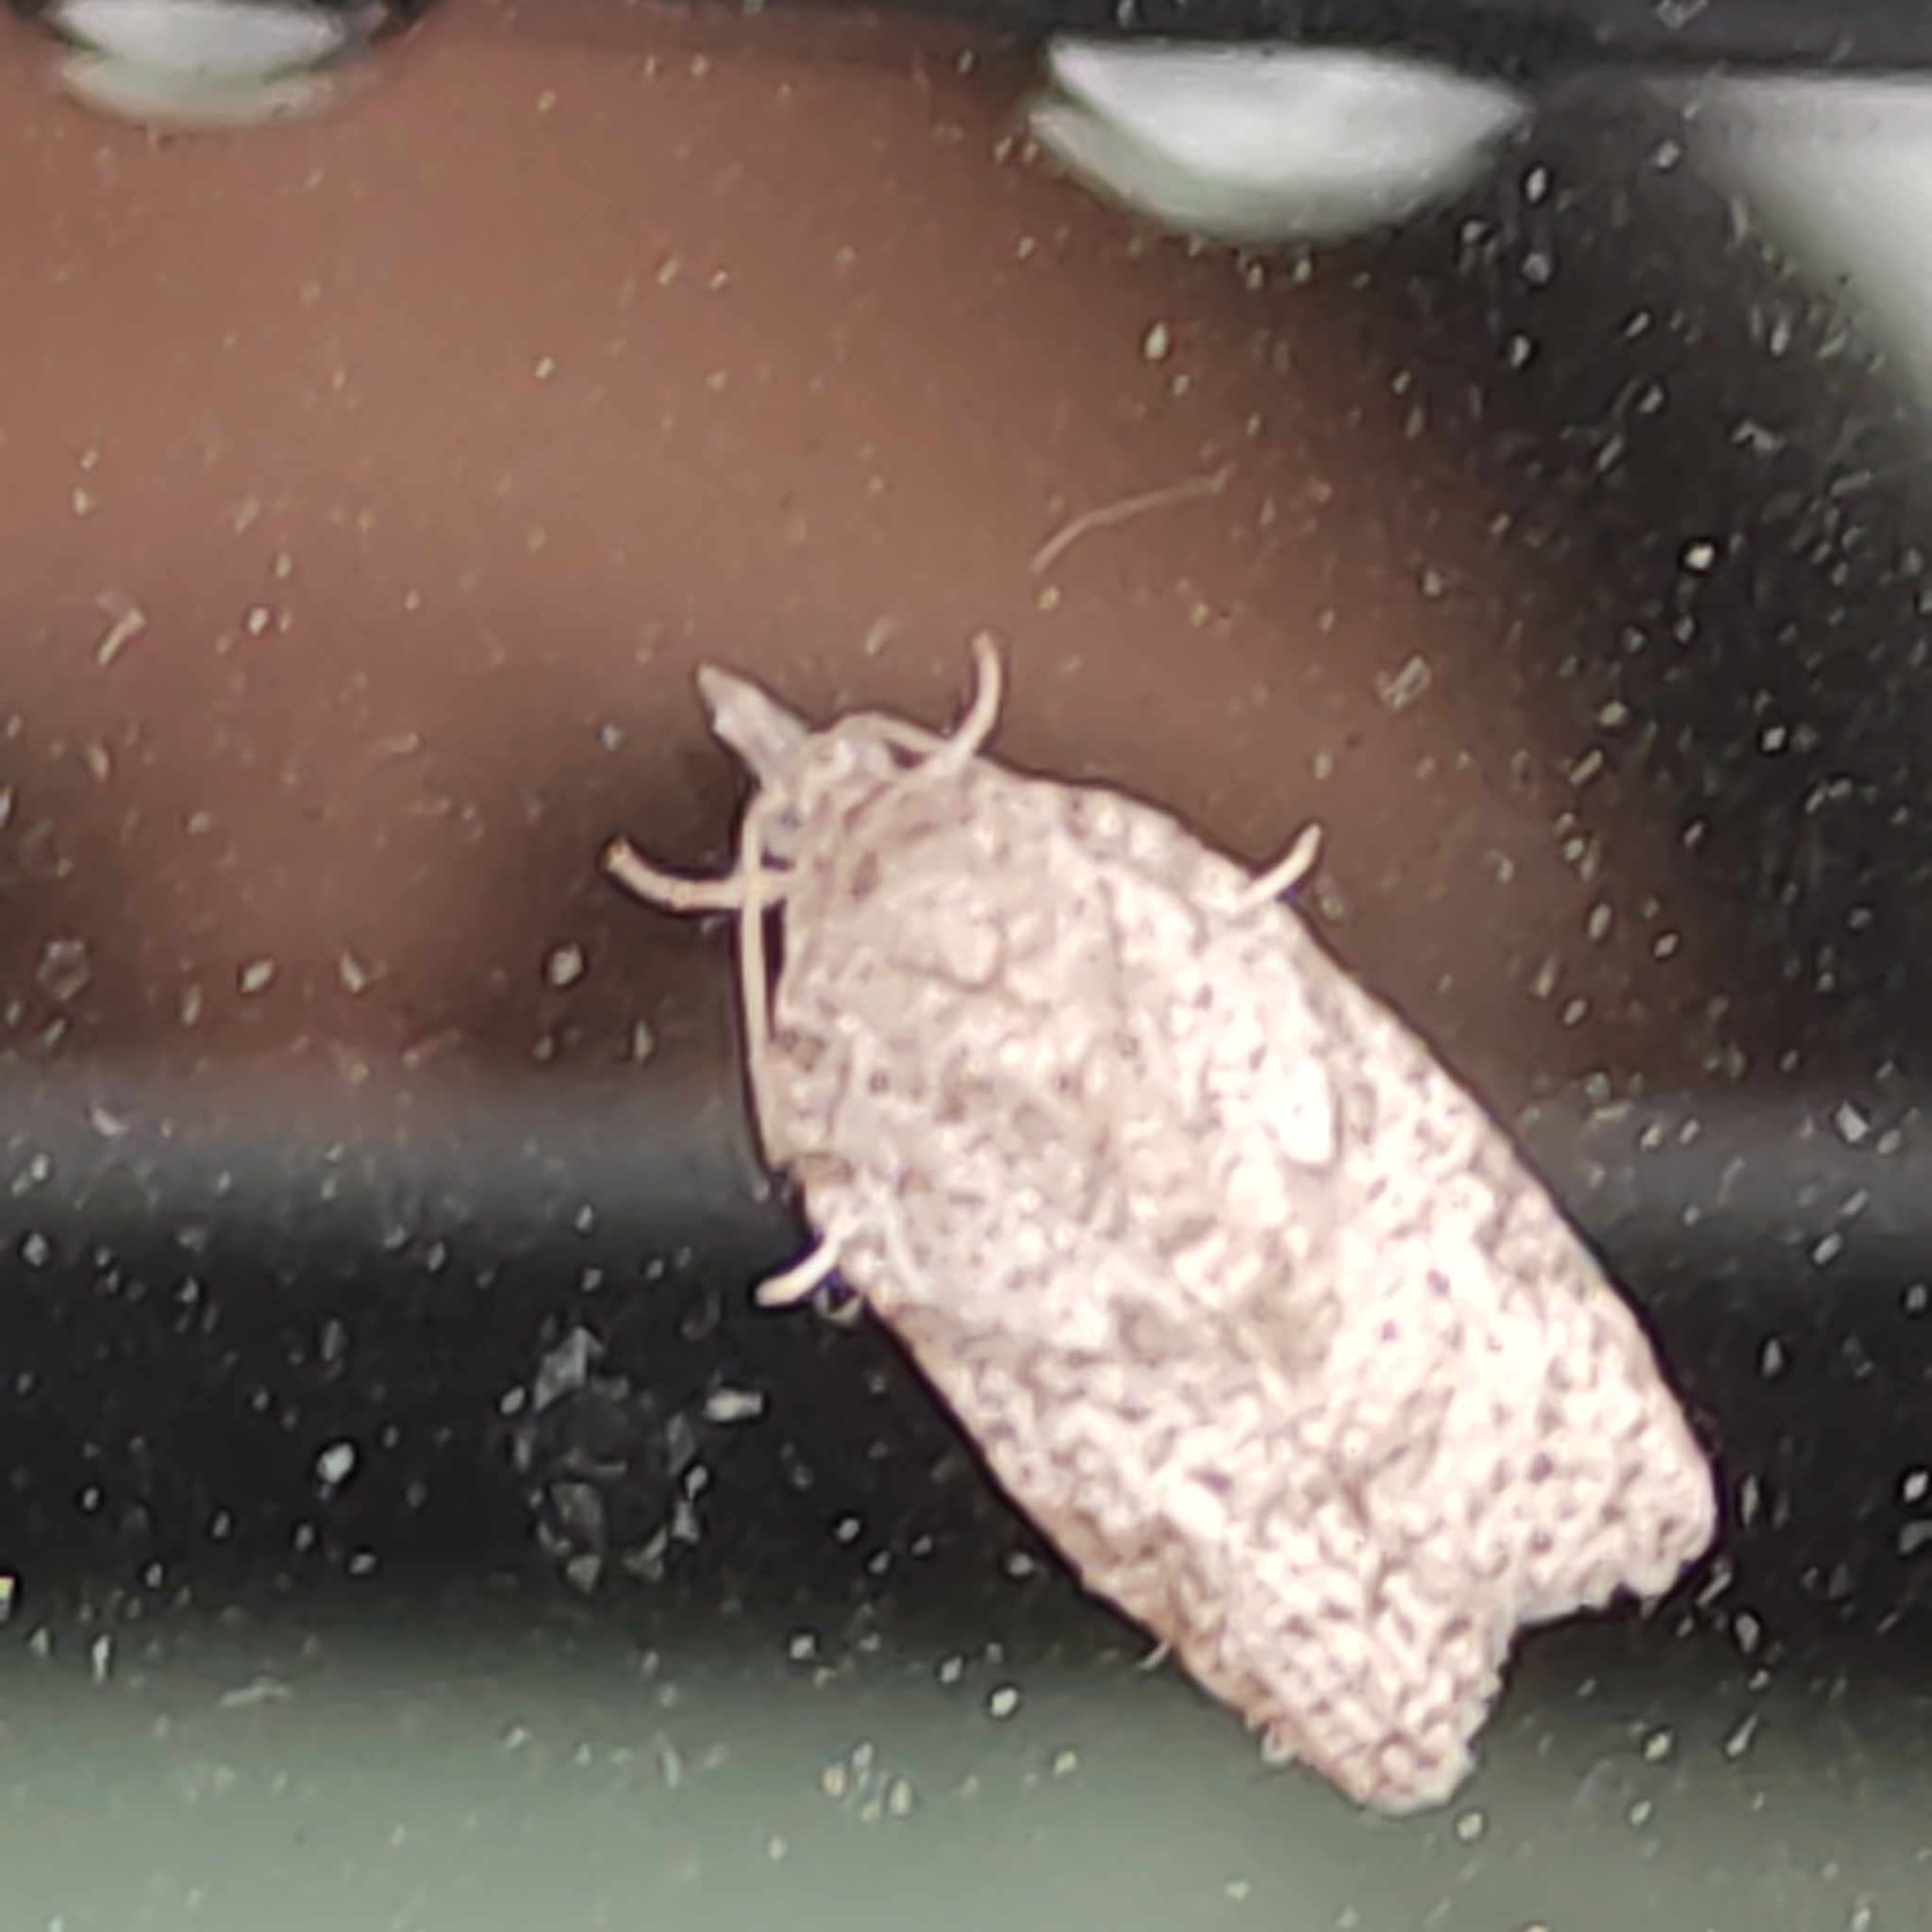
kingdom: Animalia
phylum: Arthropoda
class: Insecta
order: Lepidoptera
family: Tortricidae
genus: Isotenes
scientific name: Isotenes miserana
